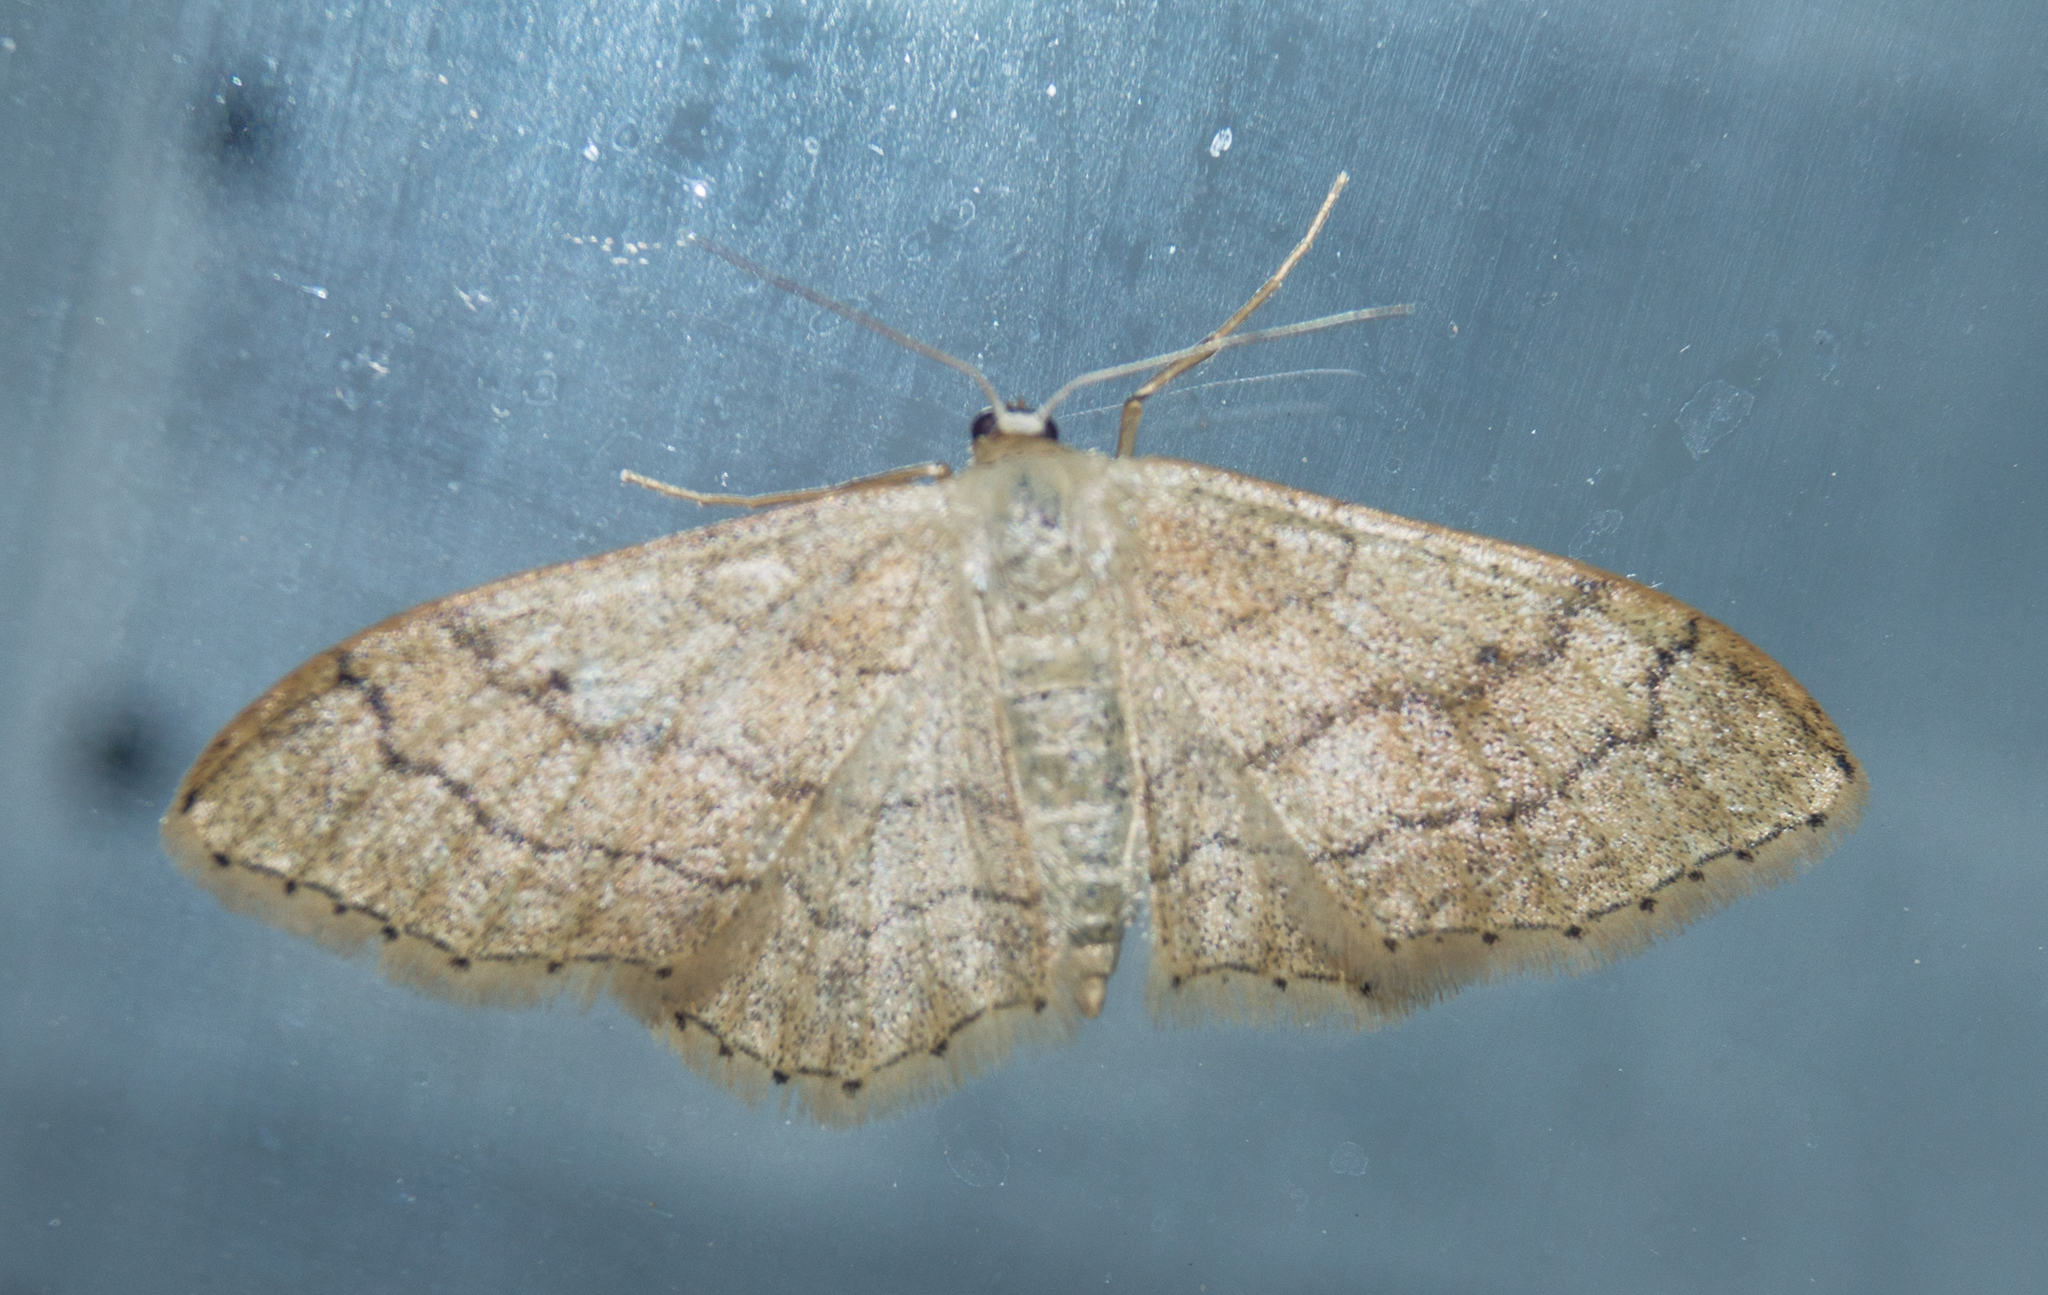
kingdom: Animalia
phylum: Arthropoda
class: Insecta
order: Lepidoptera
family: Geometridae
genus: Idaea
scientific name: Idaea aversata
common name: Riband wave
